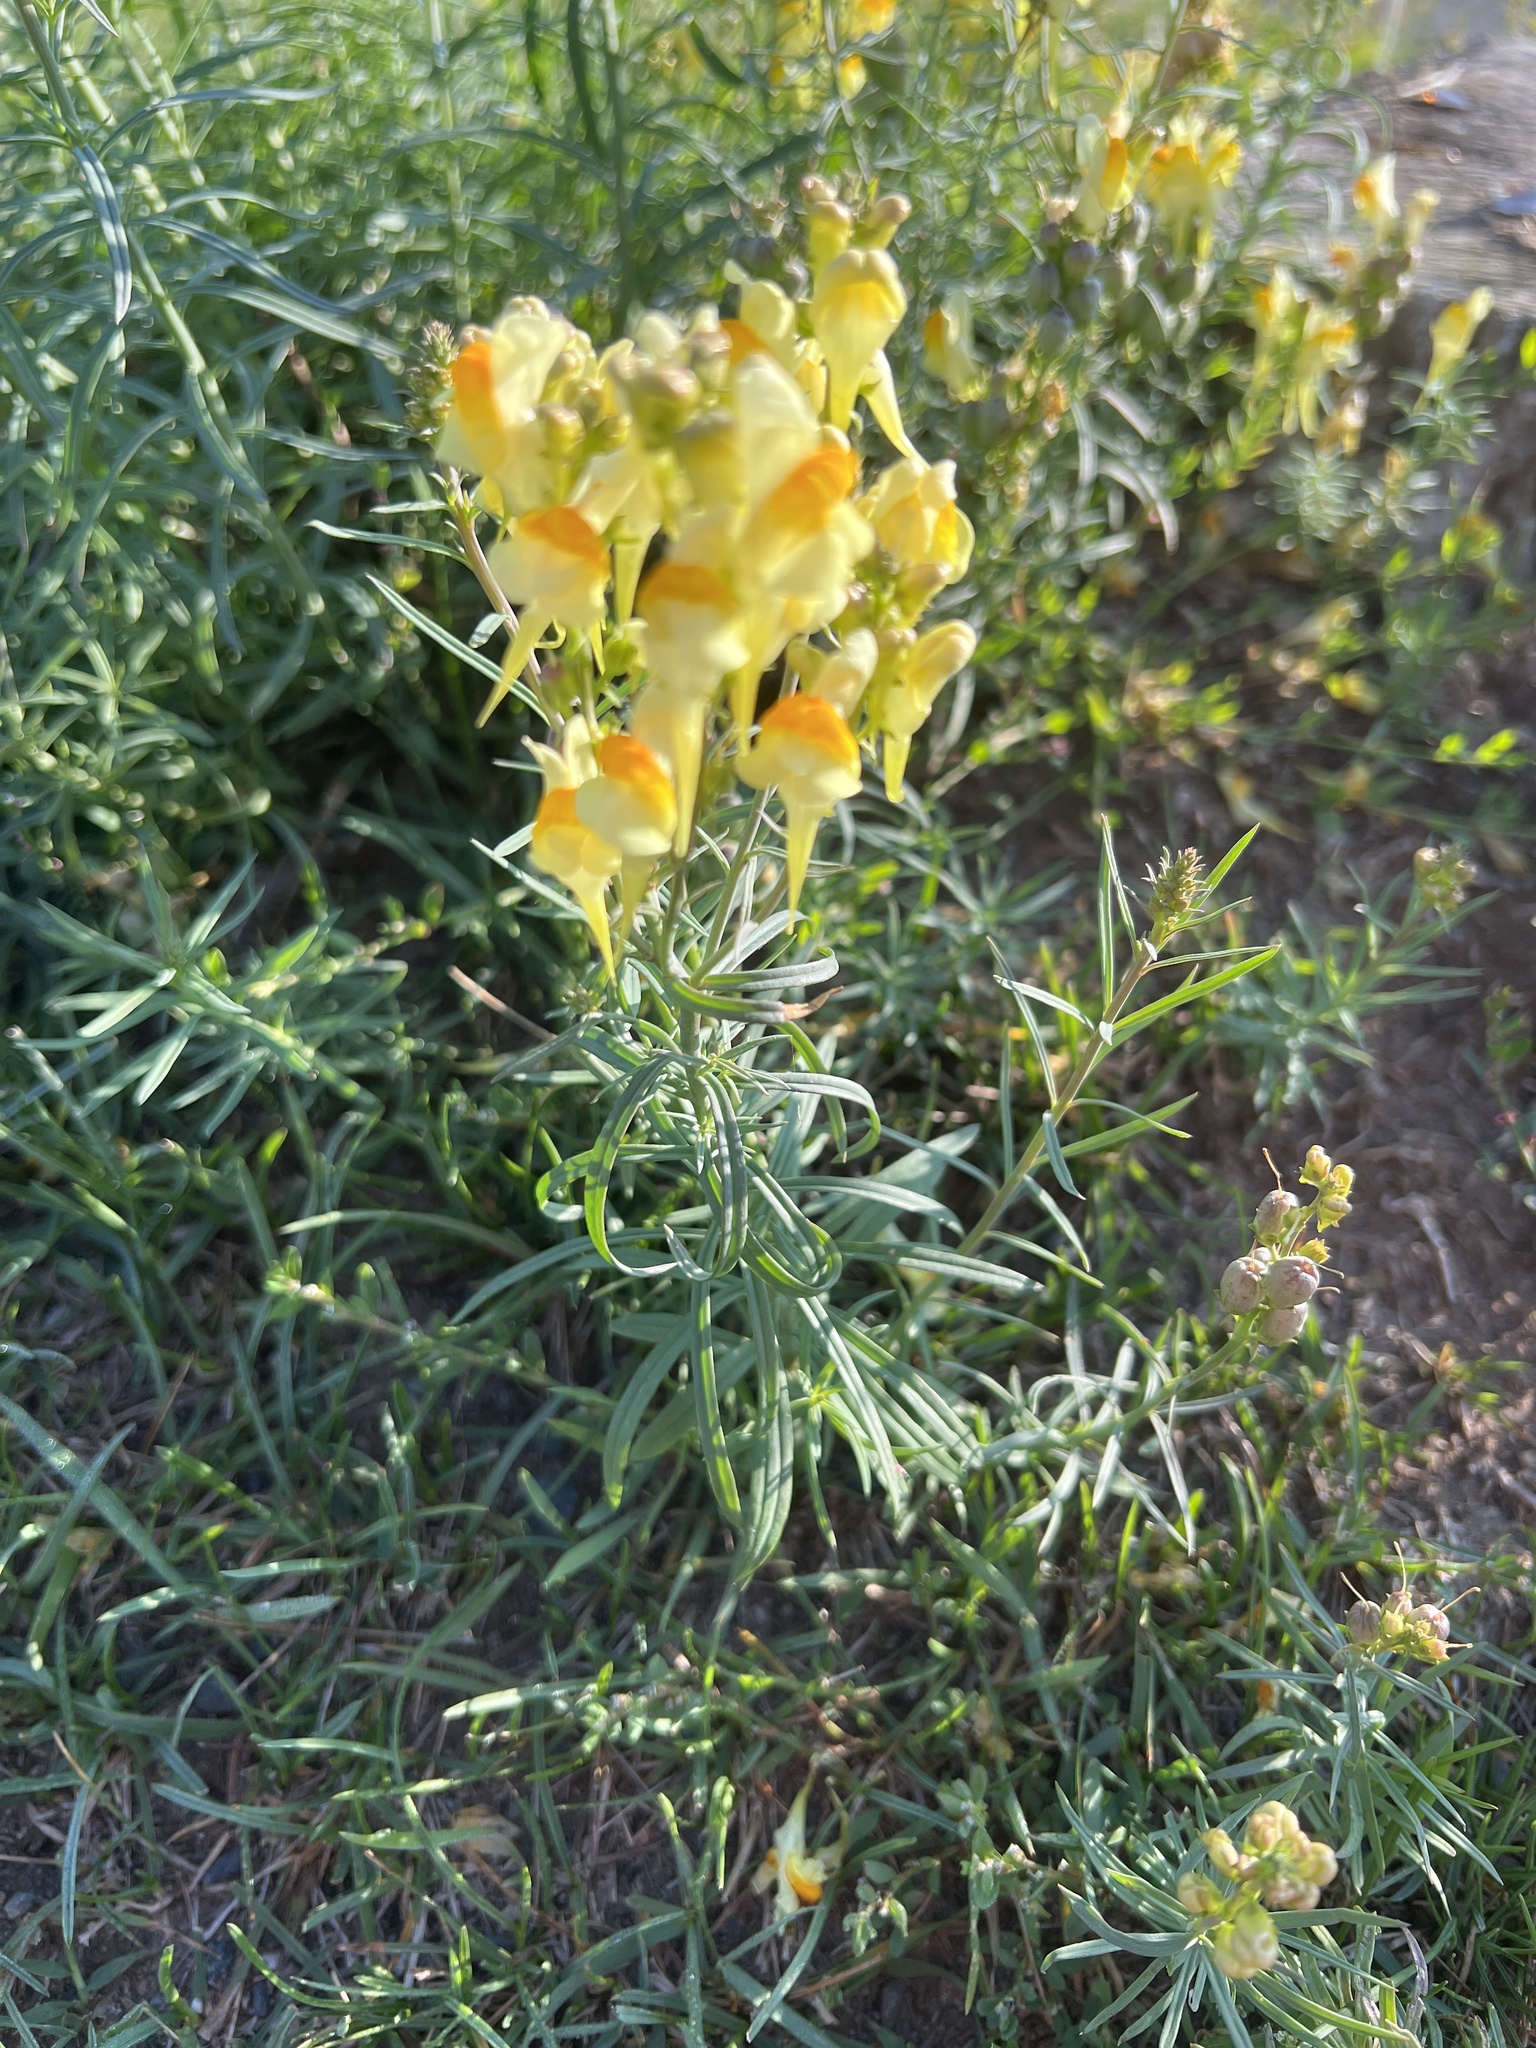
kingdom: Plantae
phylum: Tracheophyta
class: Magnoliopsida
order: Lamiales
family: Plantaginaceae
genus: Linaria
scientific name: Linaria vulgaris
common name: Butter and eggs
